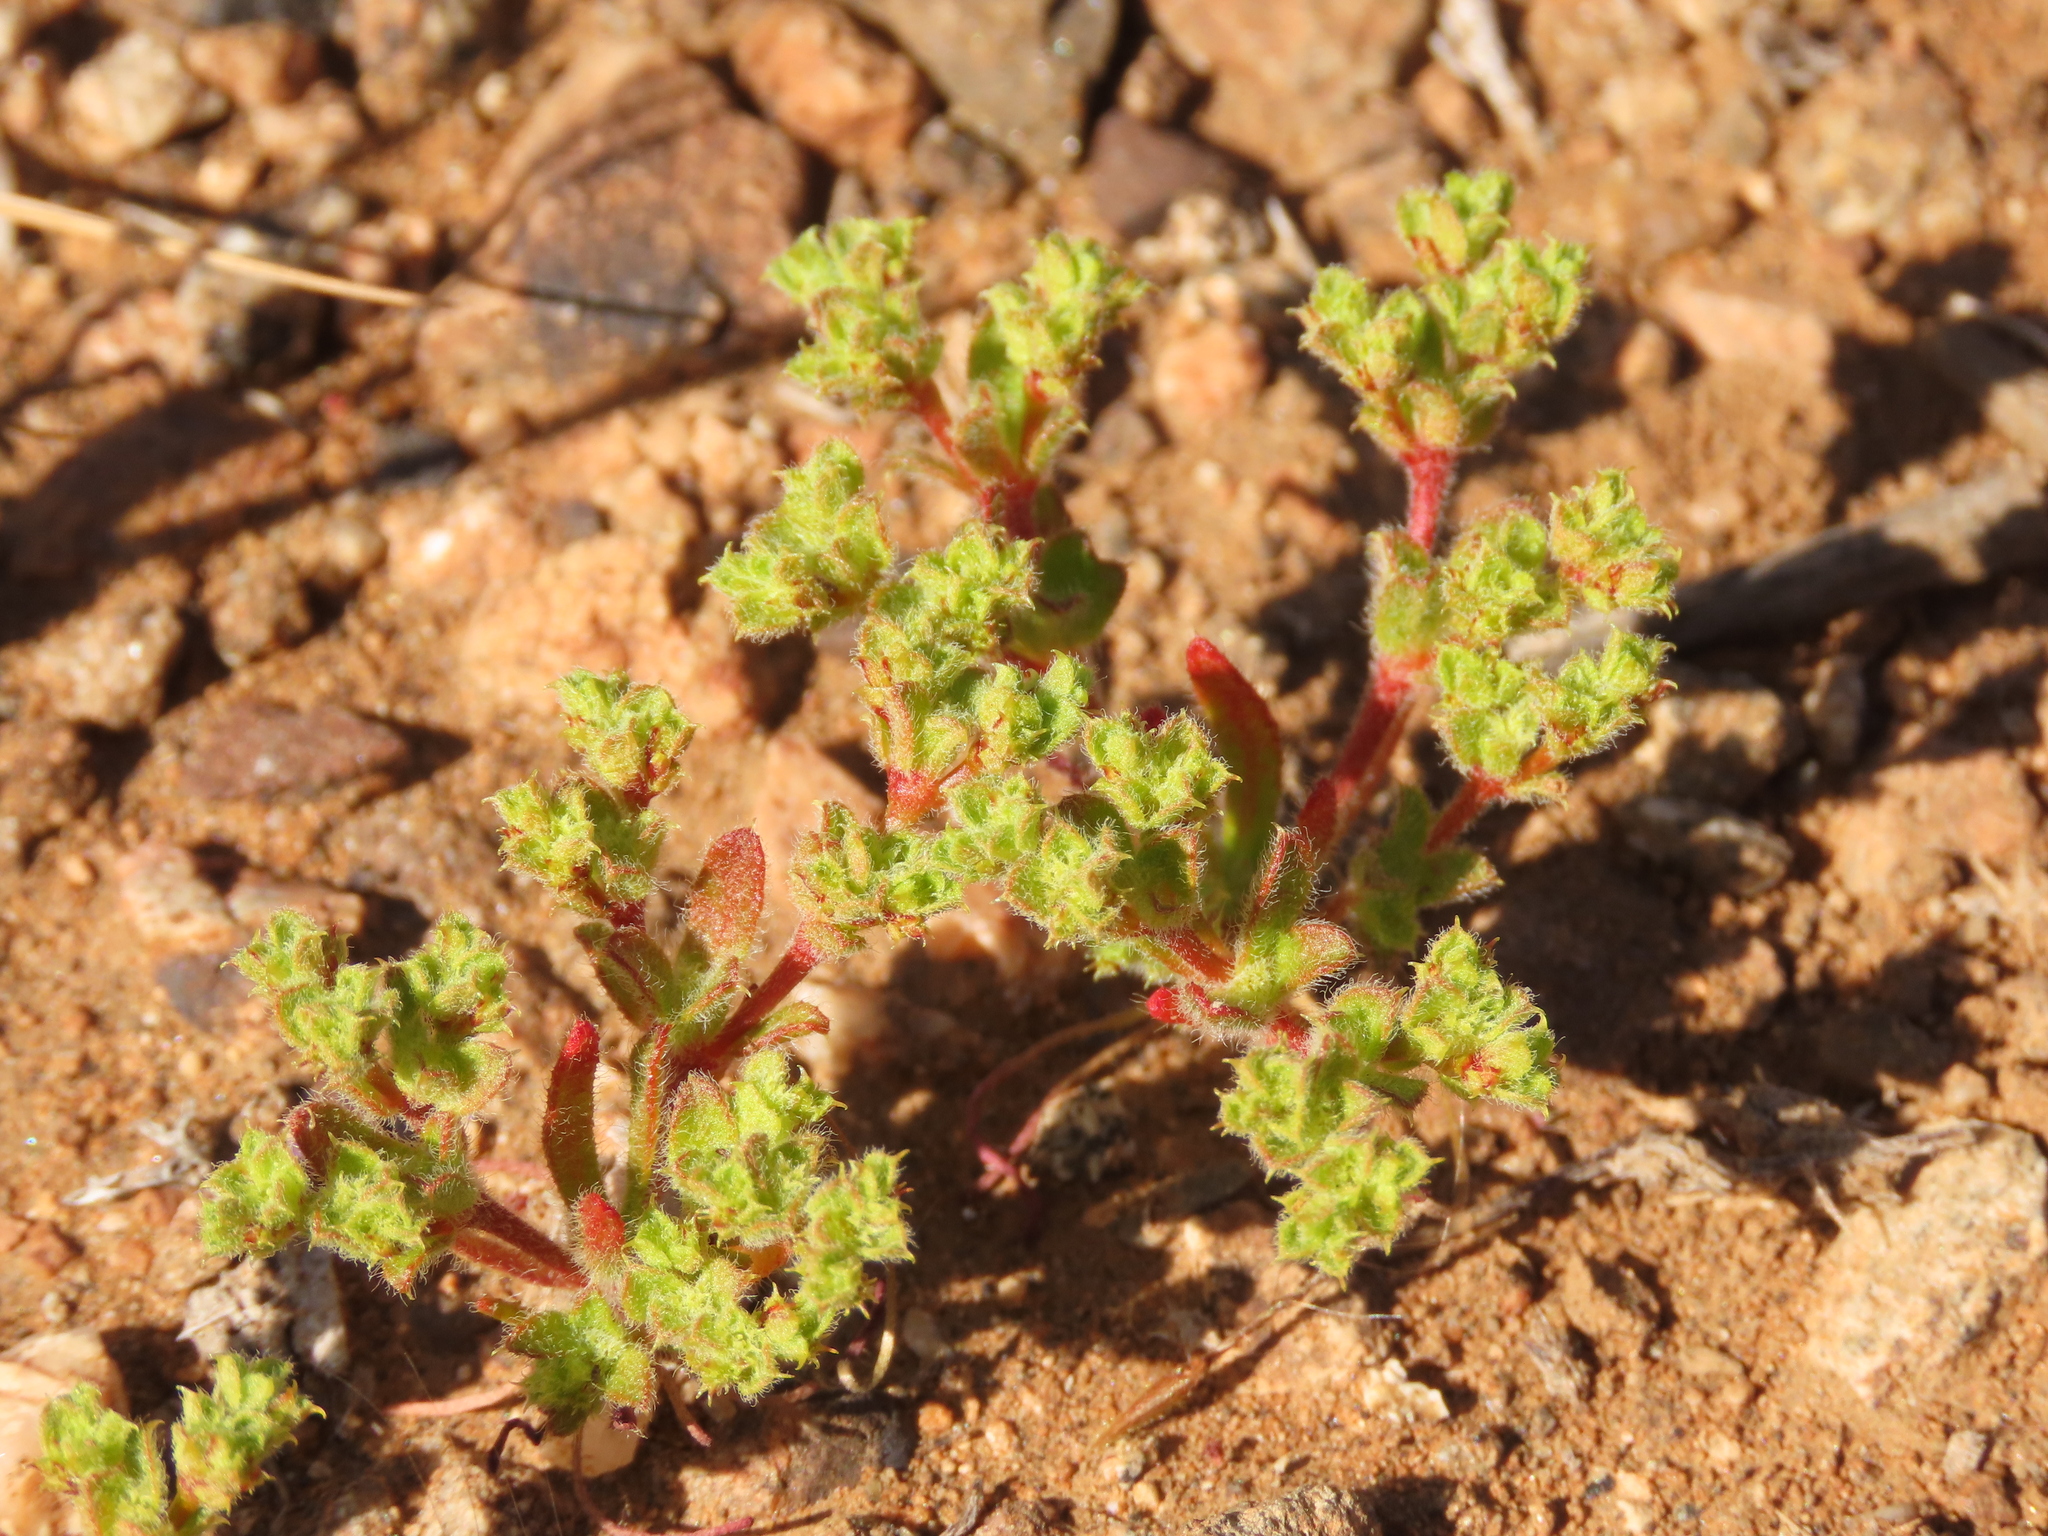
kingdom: Plantae
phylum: Tracheophyta
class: Magnoliopsida
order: Caryophyllales
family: Polygonaceae
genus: Lastarriaea
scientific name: Lastarriaea chilensis
